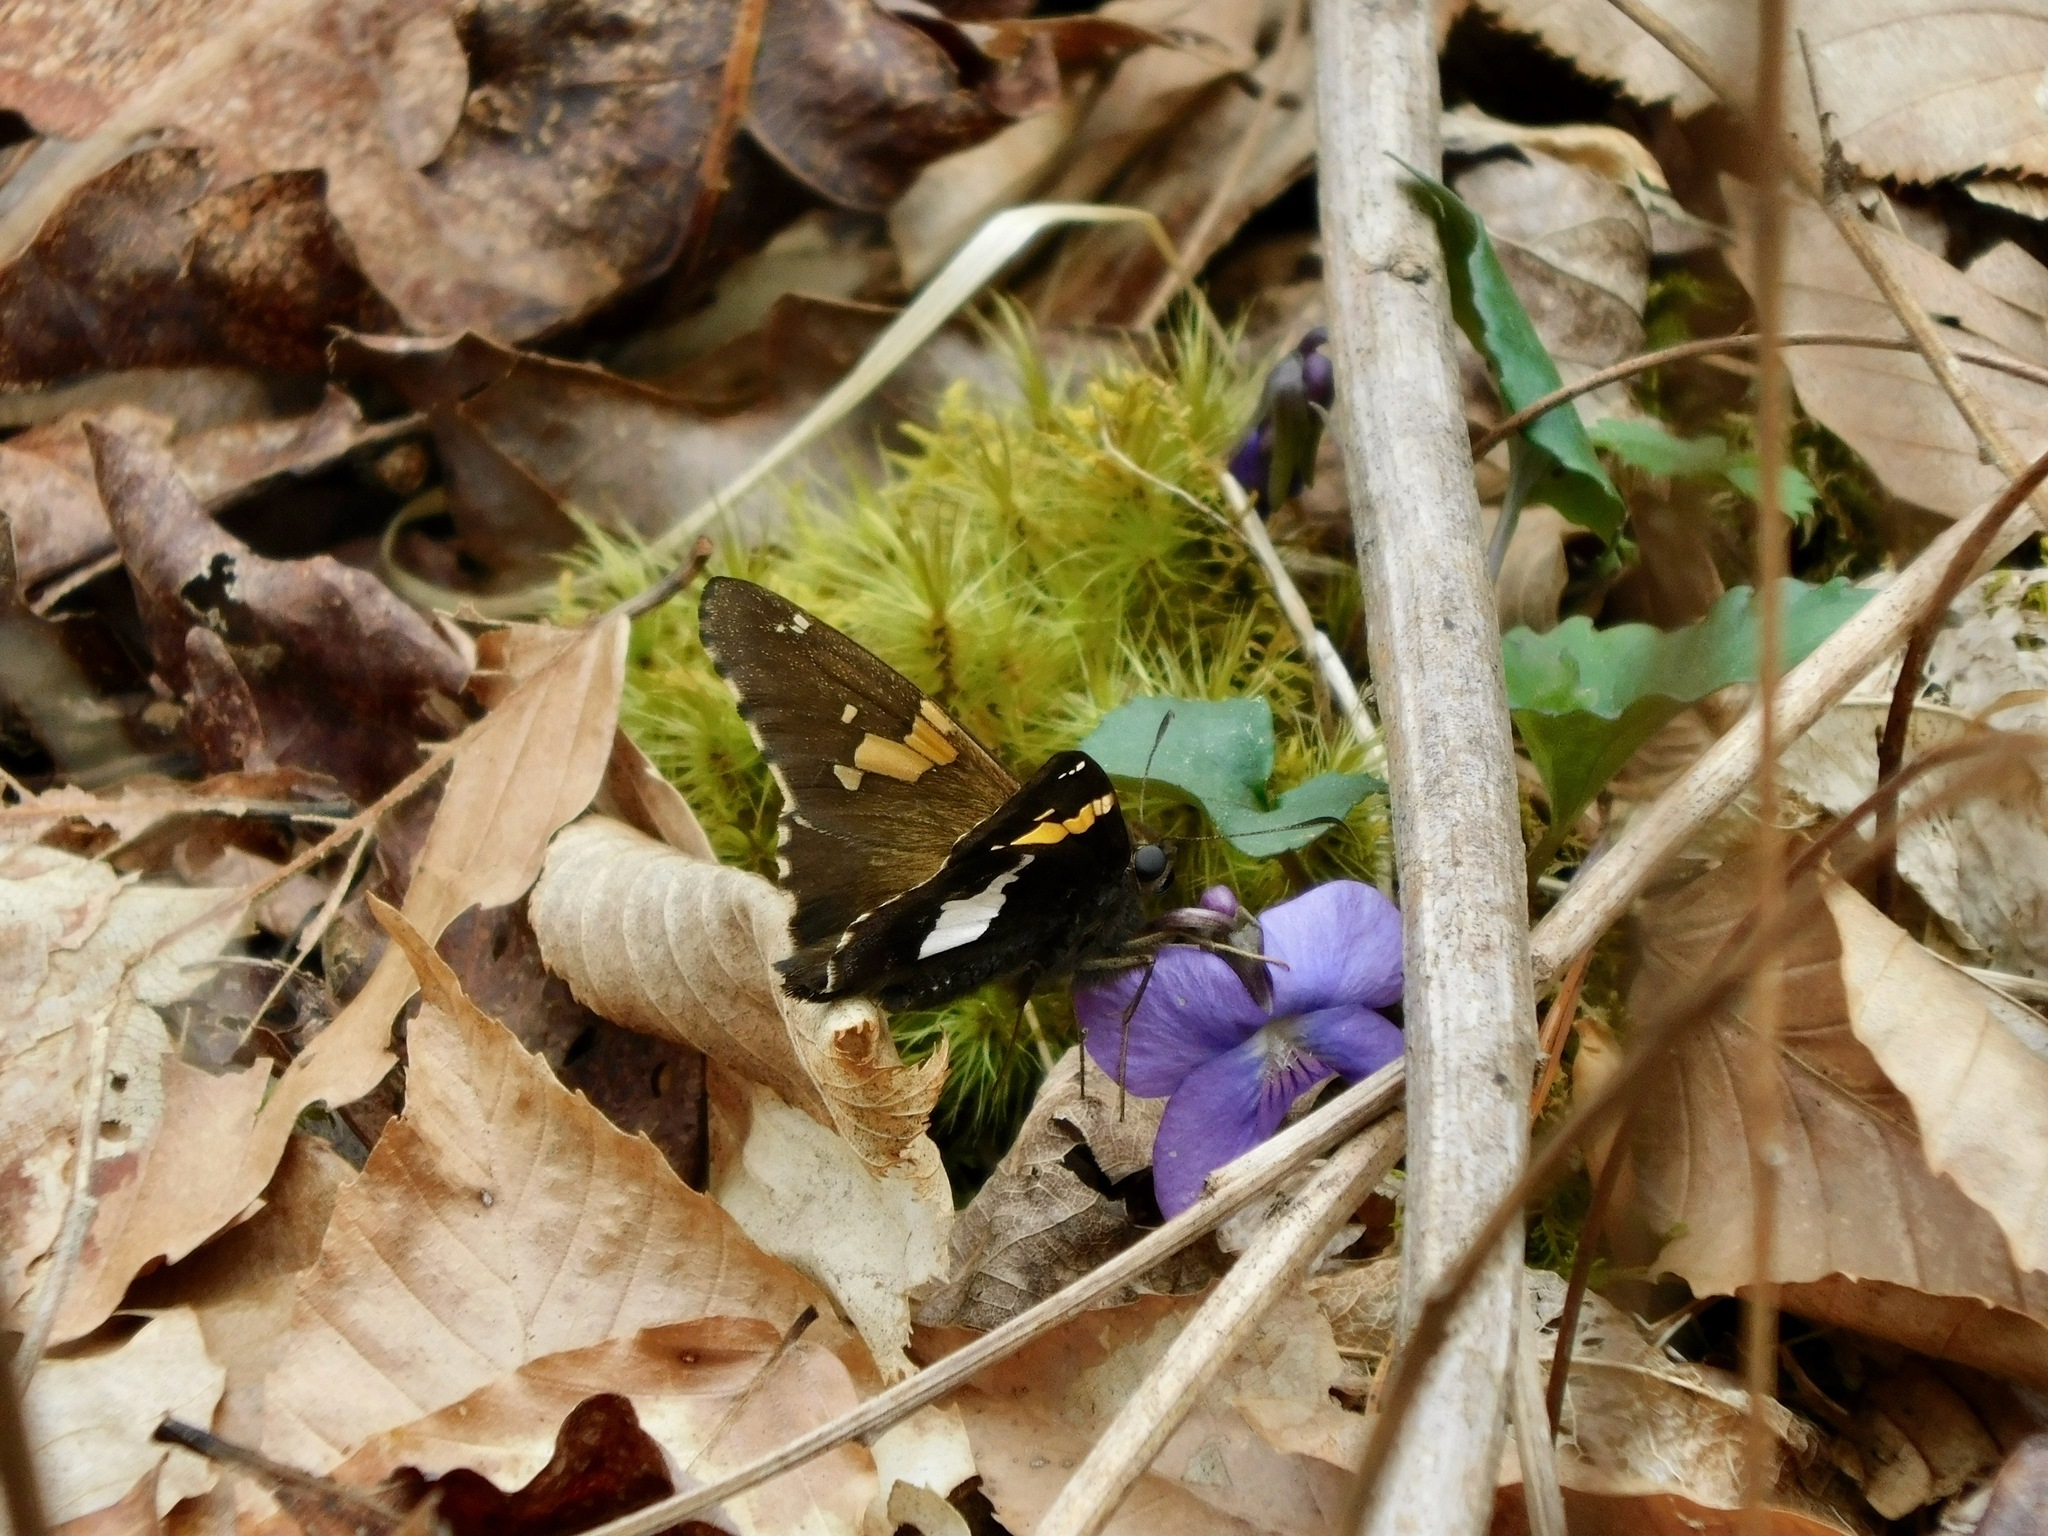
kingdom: Animalia
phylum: Arthropoda
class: Insecta
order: Lepidoptera
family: Hesperiidae
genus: Epargyreus
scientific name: Epargyreus clarus
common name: Silver-spotted skipper
